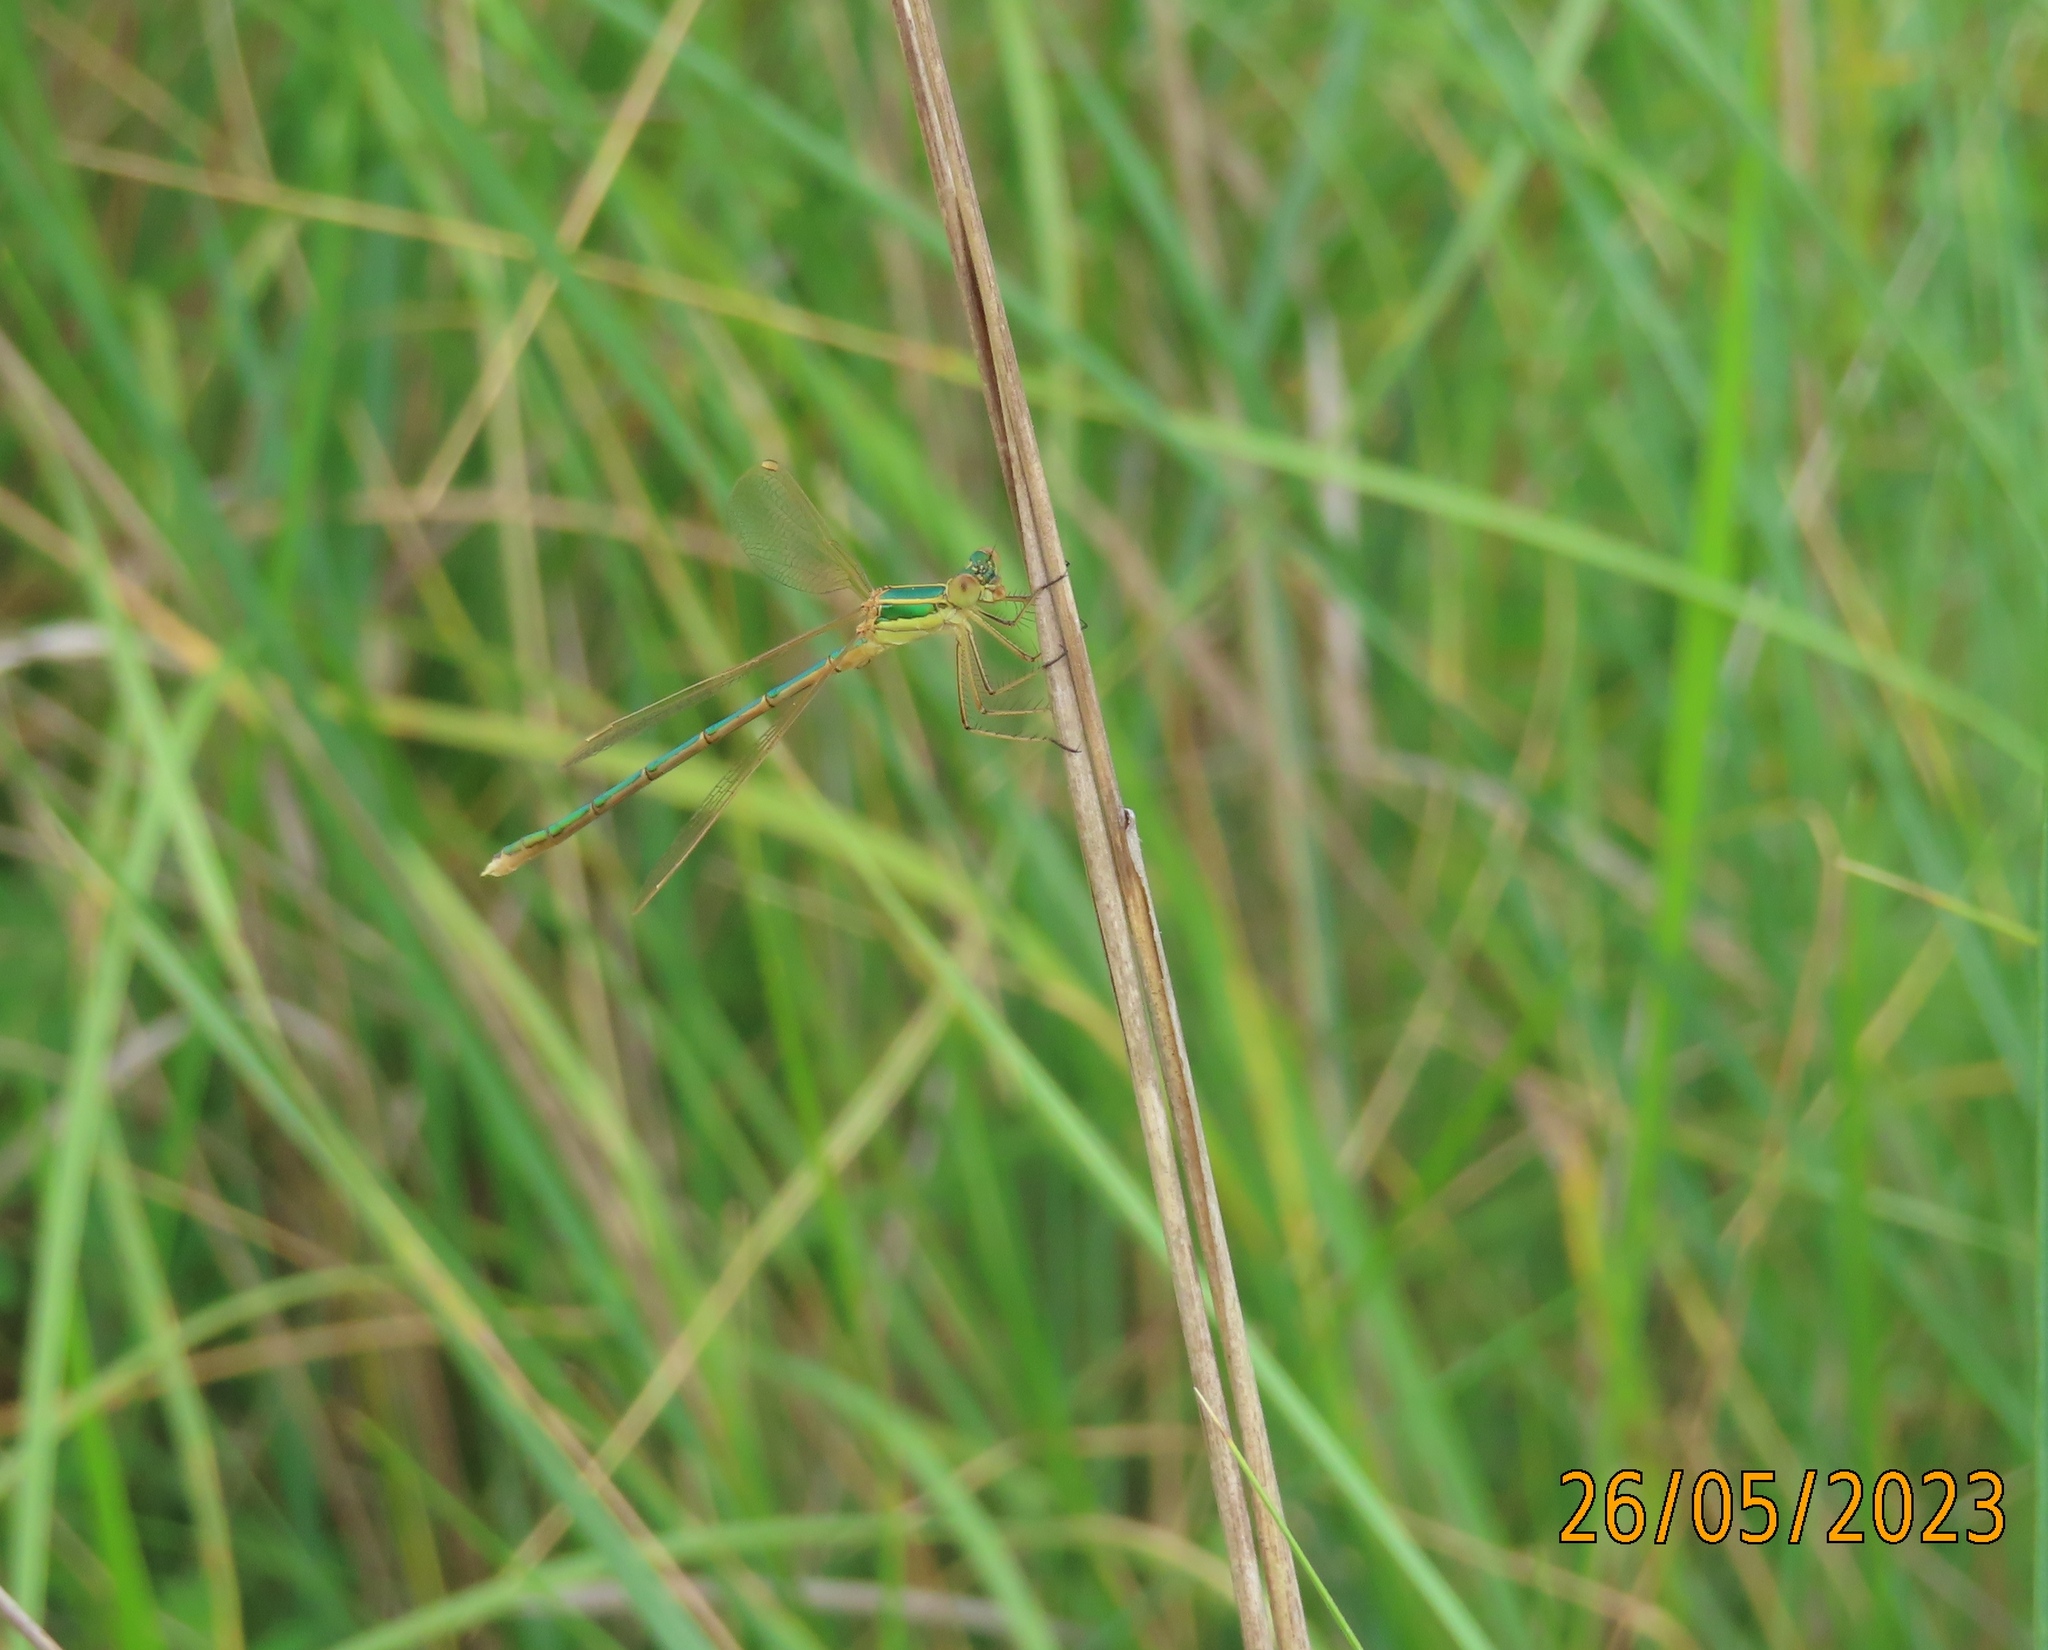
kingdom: Animalia
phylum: Arthropoda
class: Insecta
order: Odonata
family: Lestidae
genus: Lestes
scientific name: Lestes barbarus
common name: Migrant spreadwing
